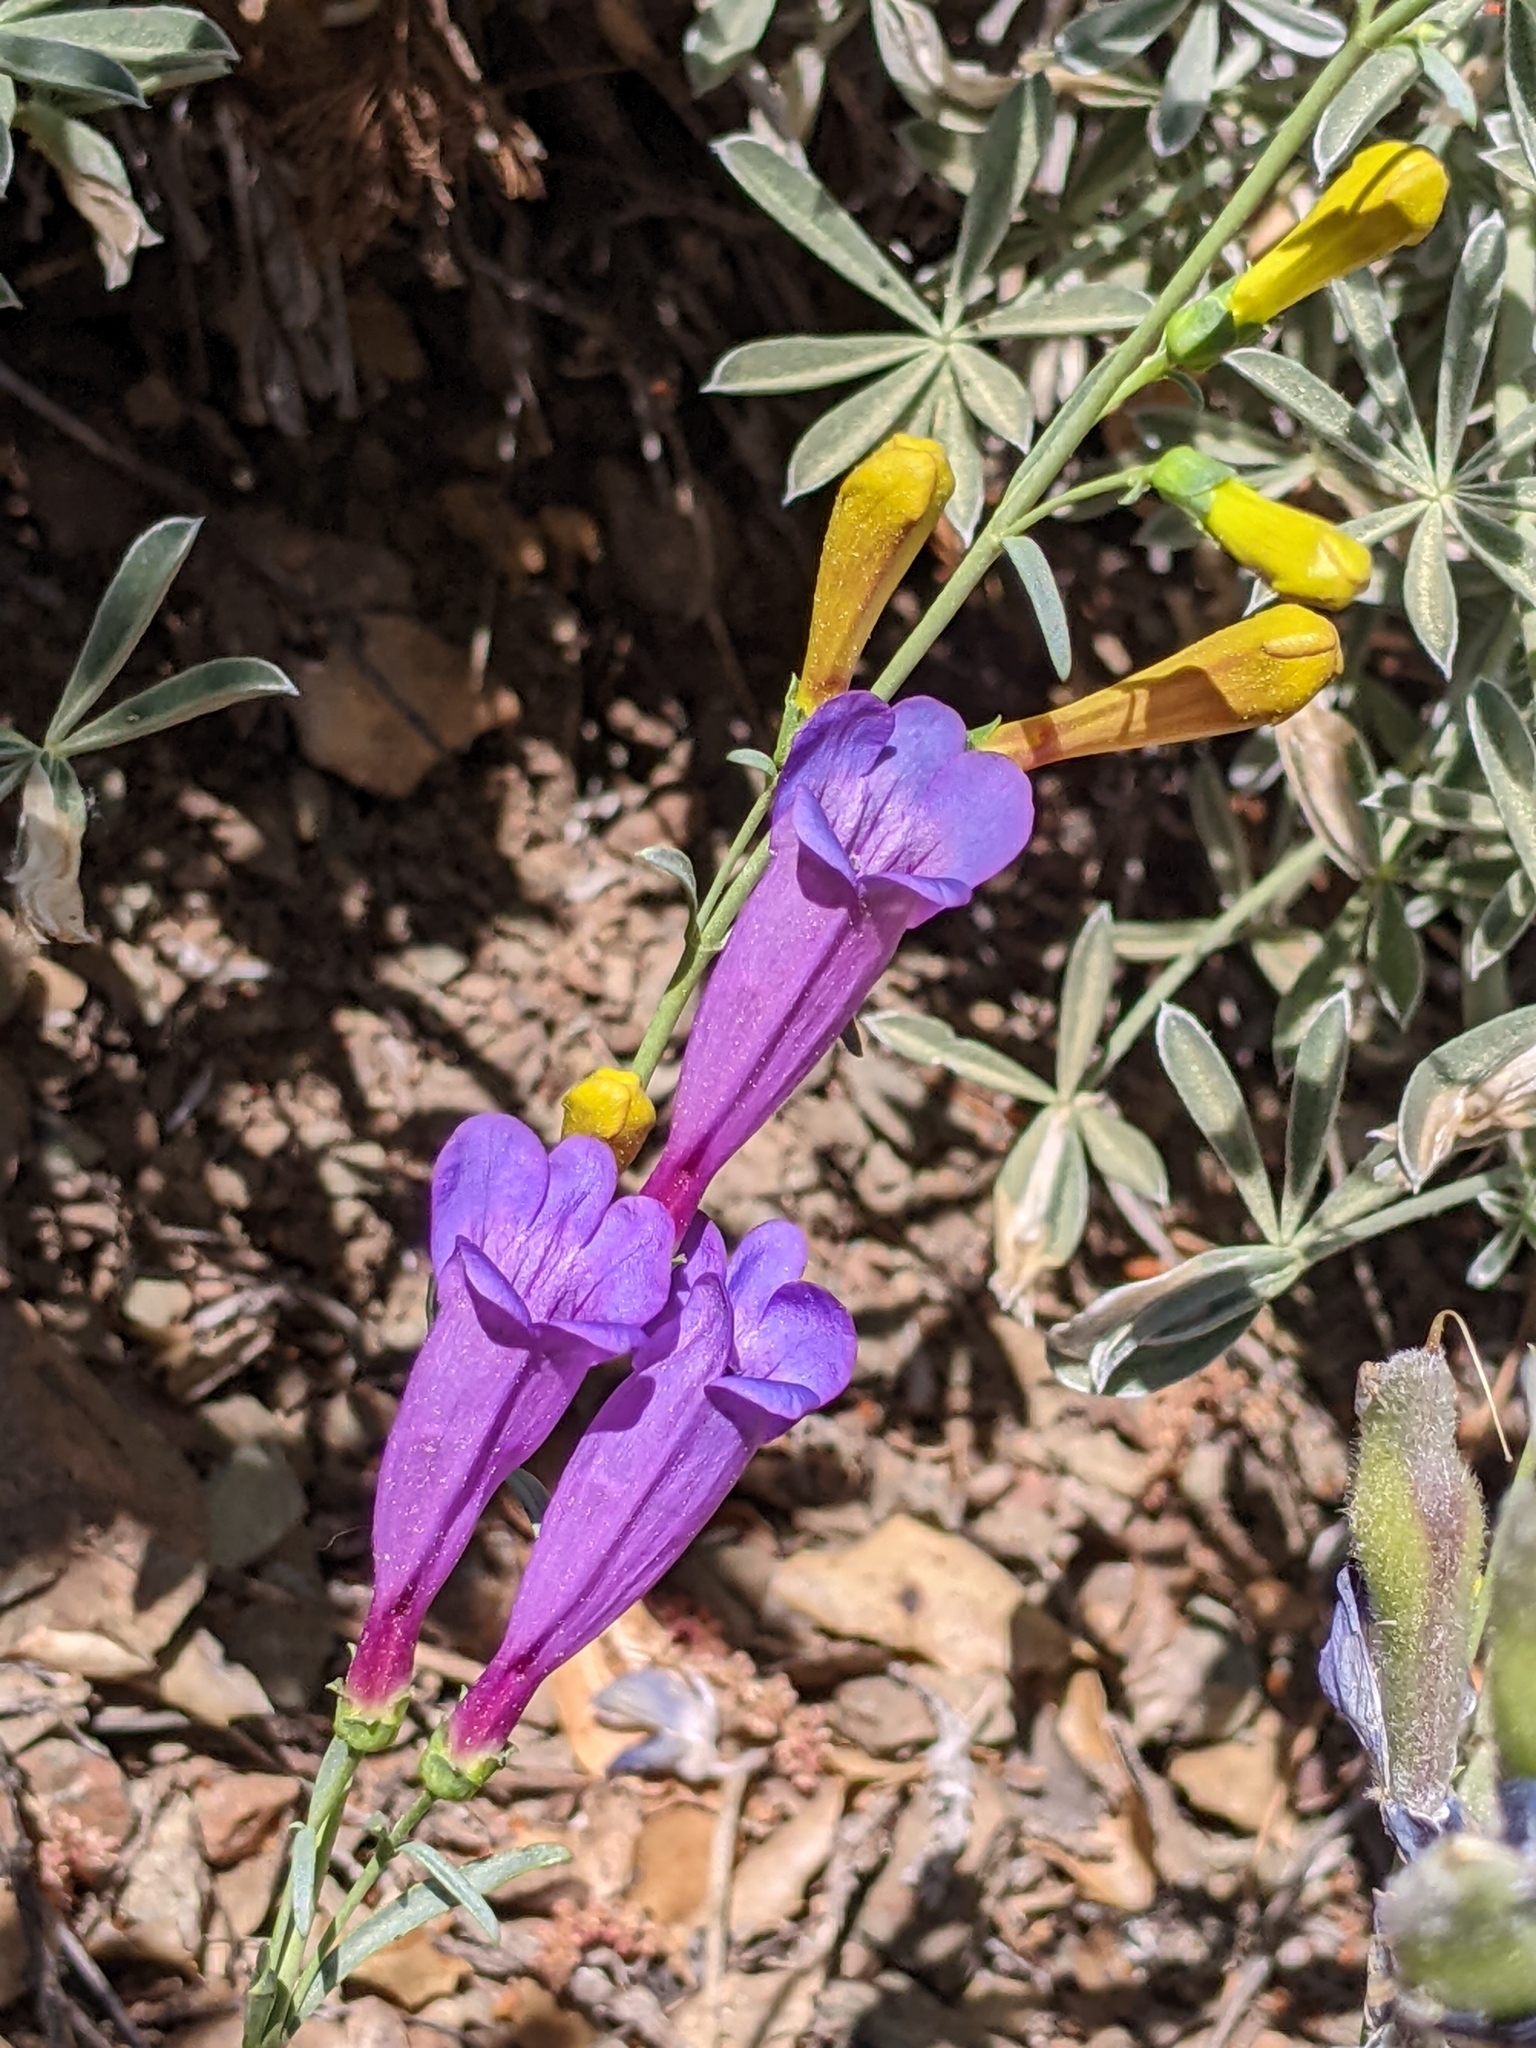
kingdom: Plantae
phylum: Tracheophyta
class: Magnoliopsida
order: Lamiales
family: Plantaginaceae
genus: Penstemon
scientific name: Penstemon heterophyllus
